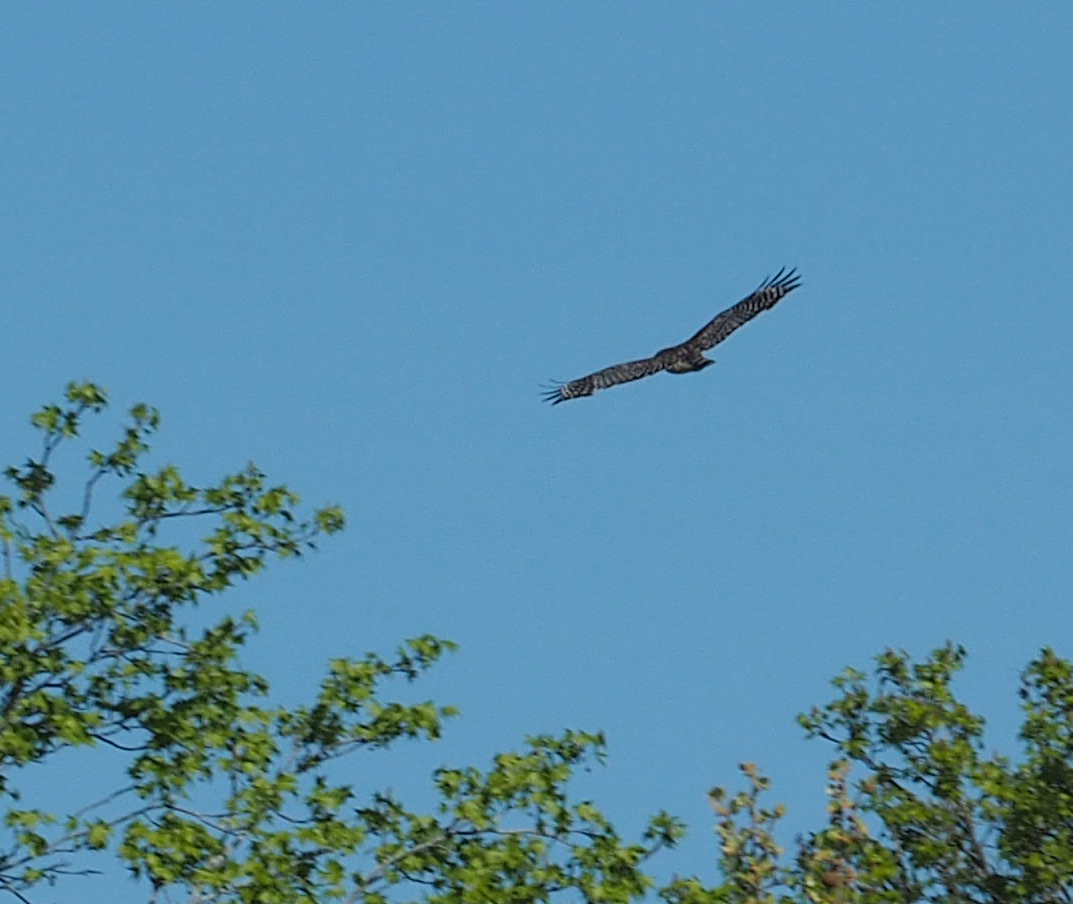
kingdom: Animalia
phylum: Chordata
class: Aves
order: Accipitriformes
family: Accipitridae
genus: Buteo
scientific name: Buteo lineatus
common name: Red-shouldered hawk
